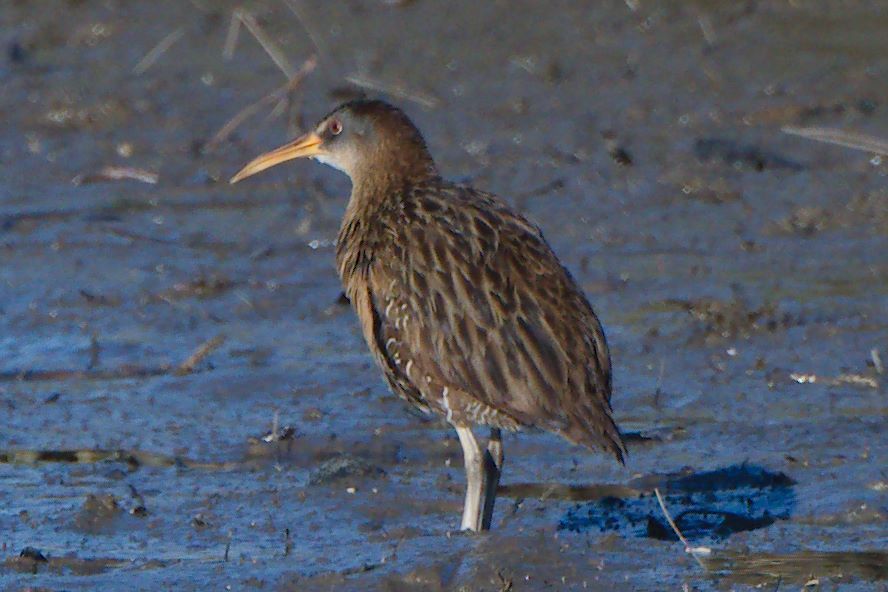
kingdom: Animalia
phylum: Chordata
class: Aves
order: Gruiformes
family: Rallidae
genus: Rallus
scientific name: Rallus crepitans
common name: Clapper rail
